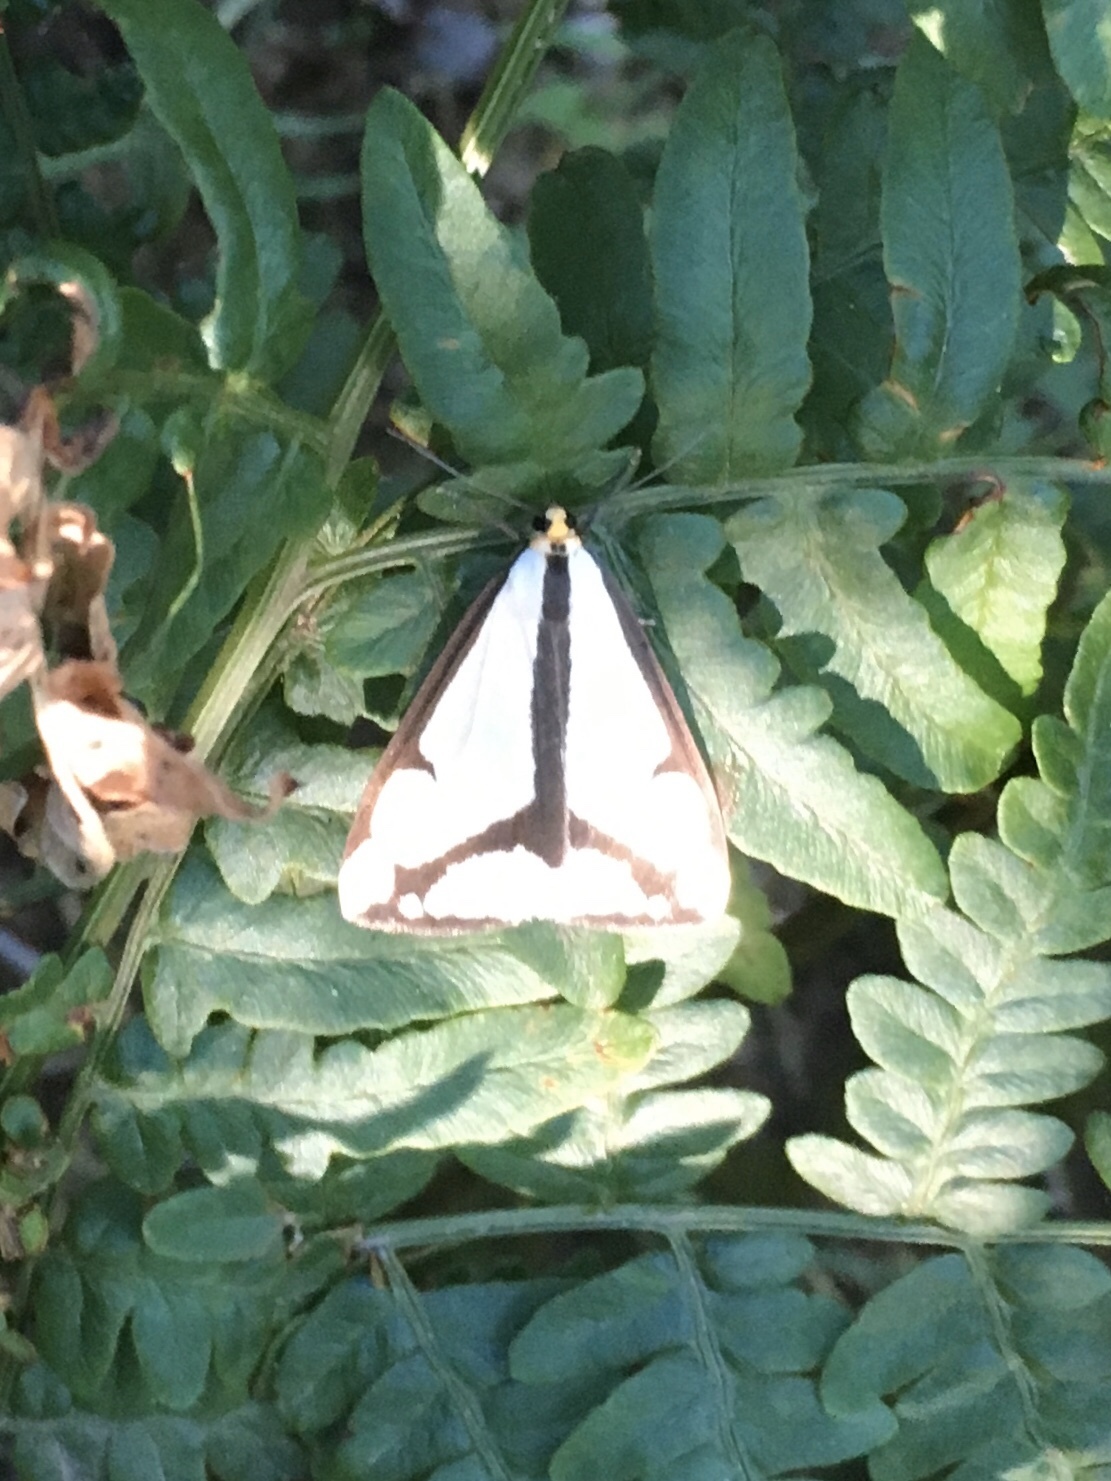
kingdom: Animalia
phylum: Arthropoda
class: Insecta
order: Lepidoptera
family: Erebidae
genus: Haploa
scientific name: Haploa lecontei
